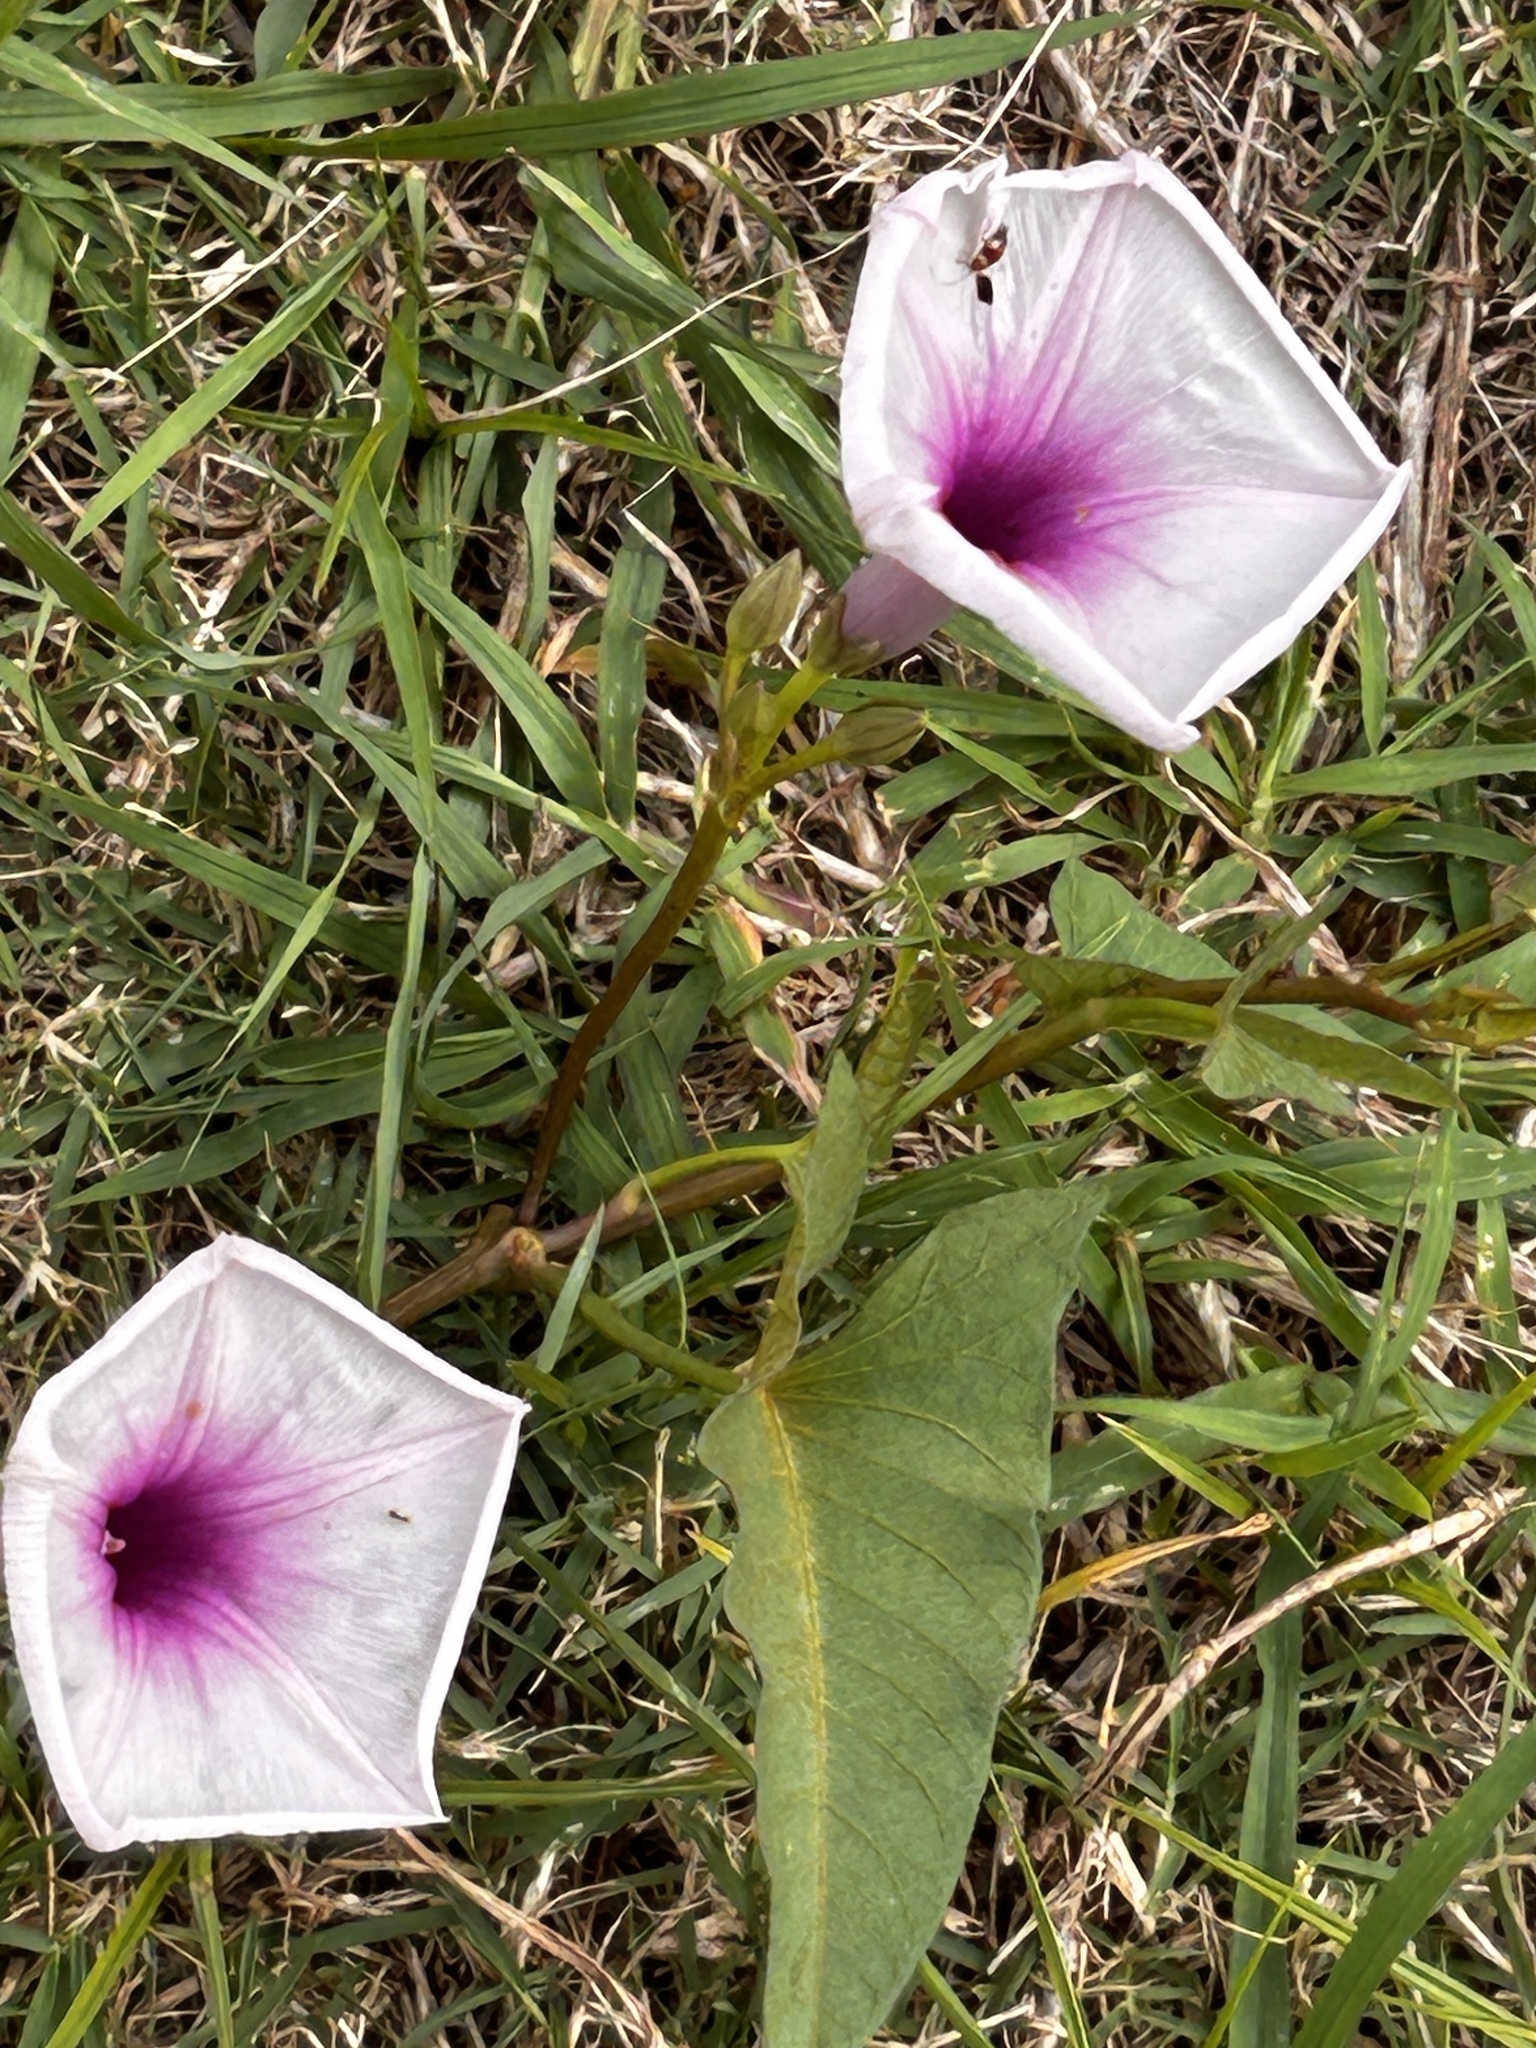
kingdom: Plantae
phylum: Tracheophyta
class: Magnoliopsida
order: Solanales
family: Convolvulaceae
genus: Ipomoea
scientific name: Ipomoea aquatica
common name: Swamp morning-glory
